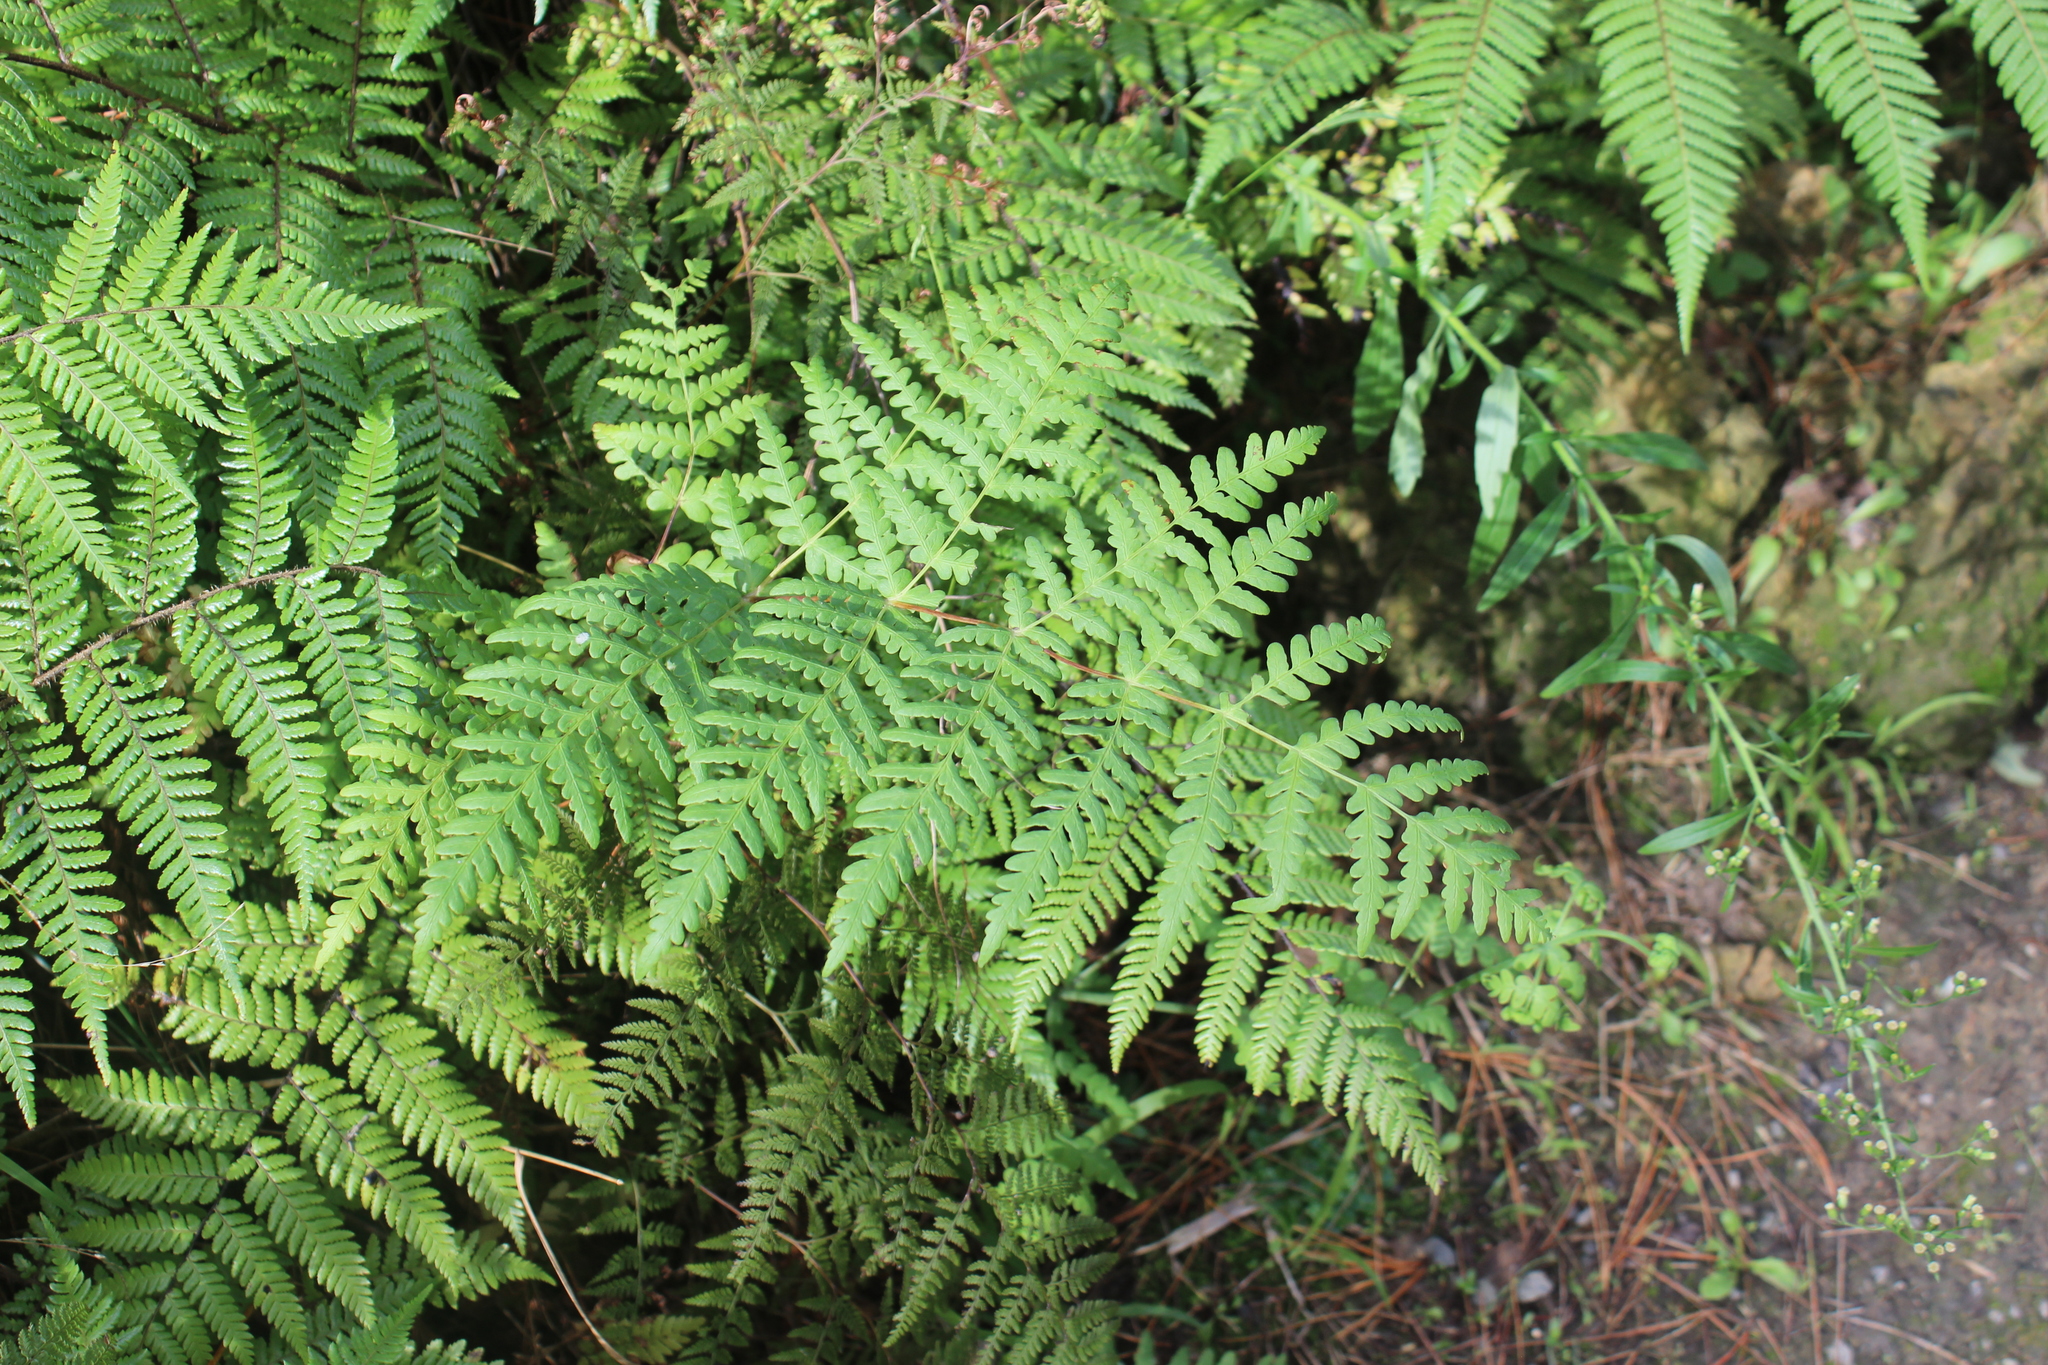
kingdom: Plantae
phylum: Tracheophyta
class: Polypodiopsida
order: Polypodiales
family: Dennstaedtiaceae
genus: Histiopteris
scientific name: Histiopteris incisa
